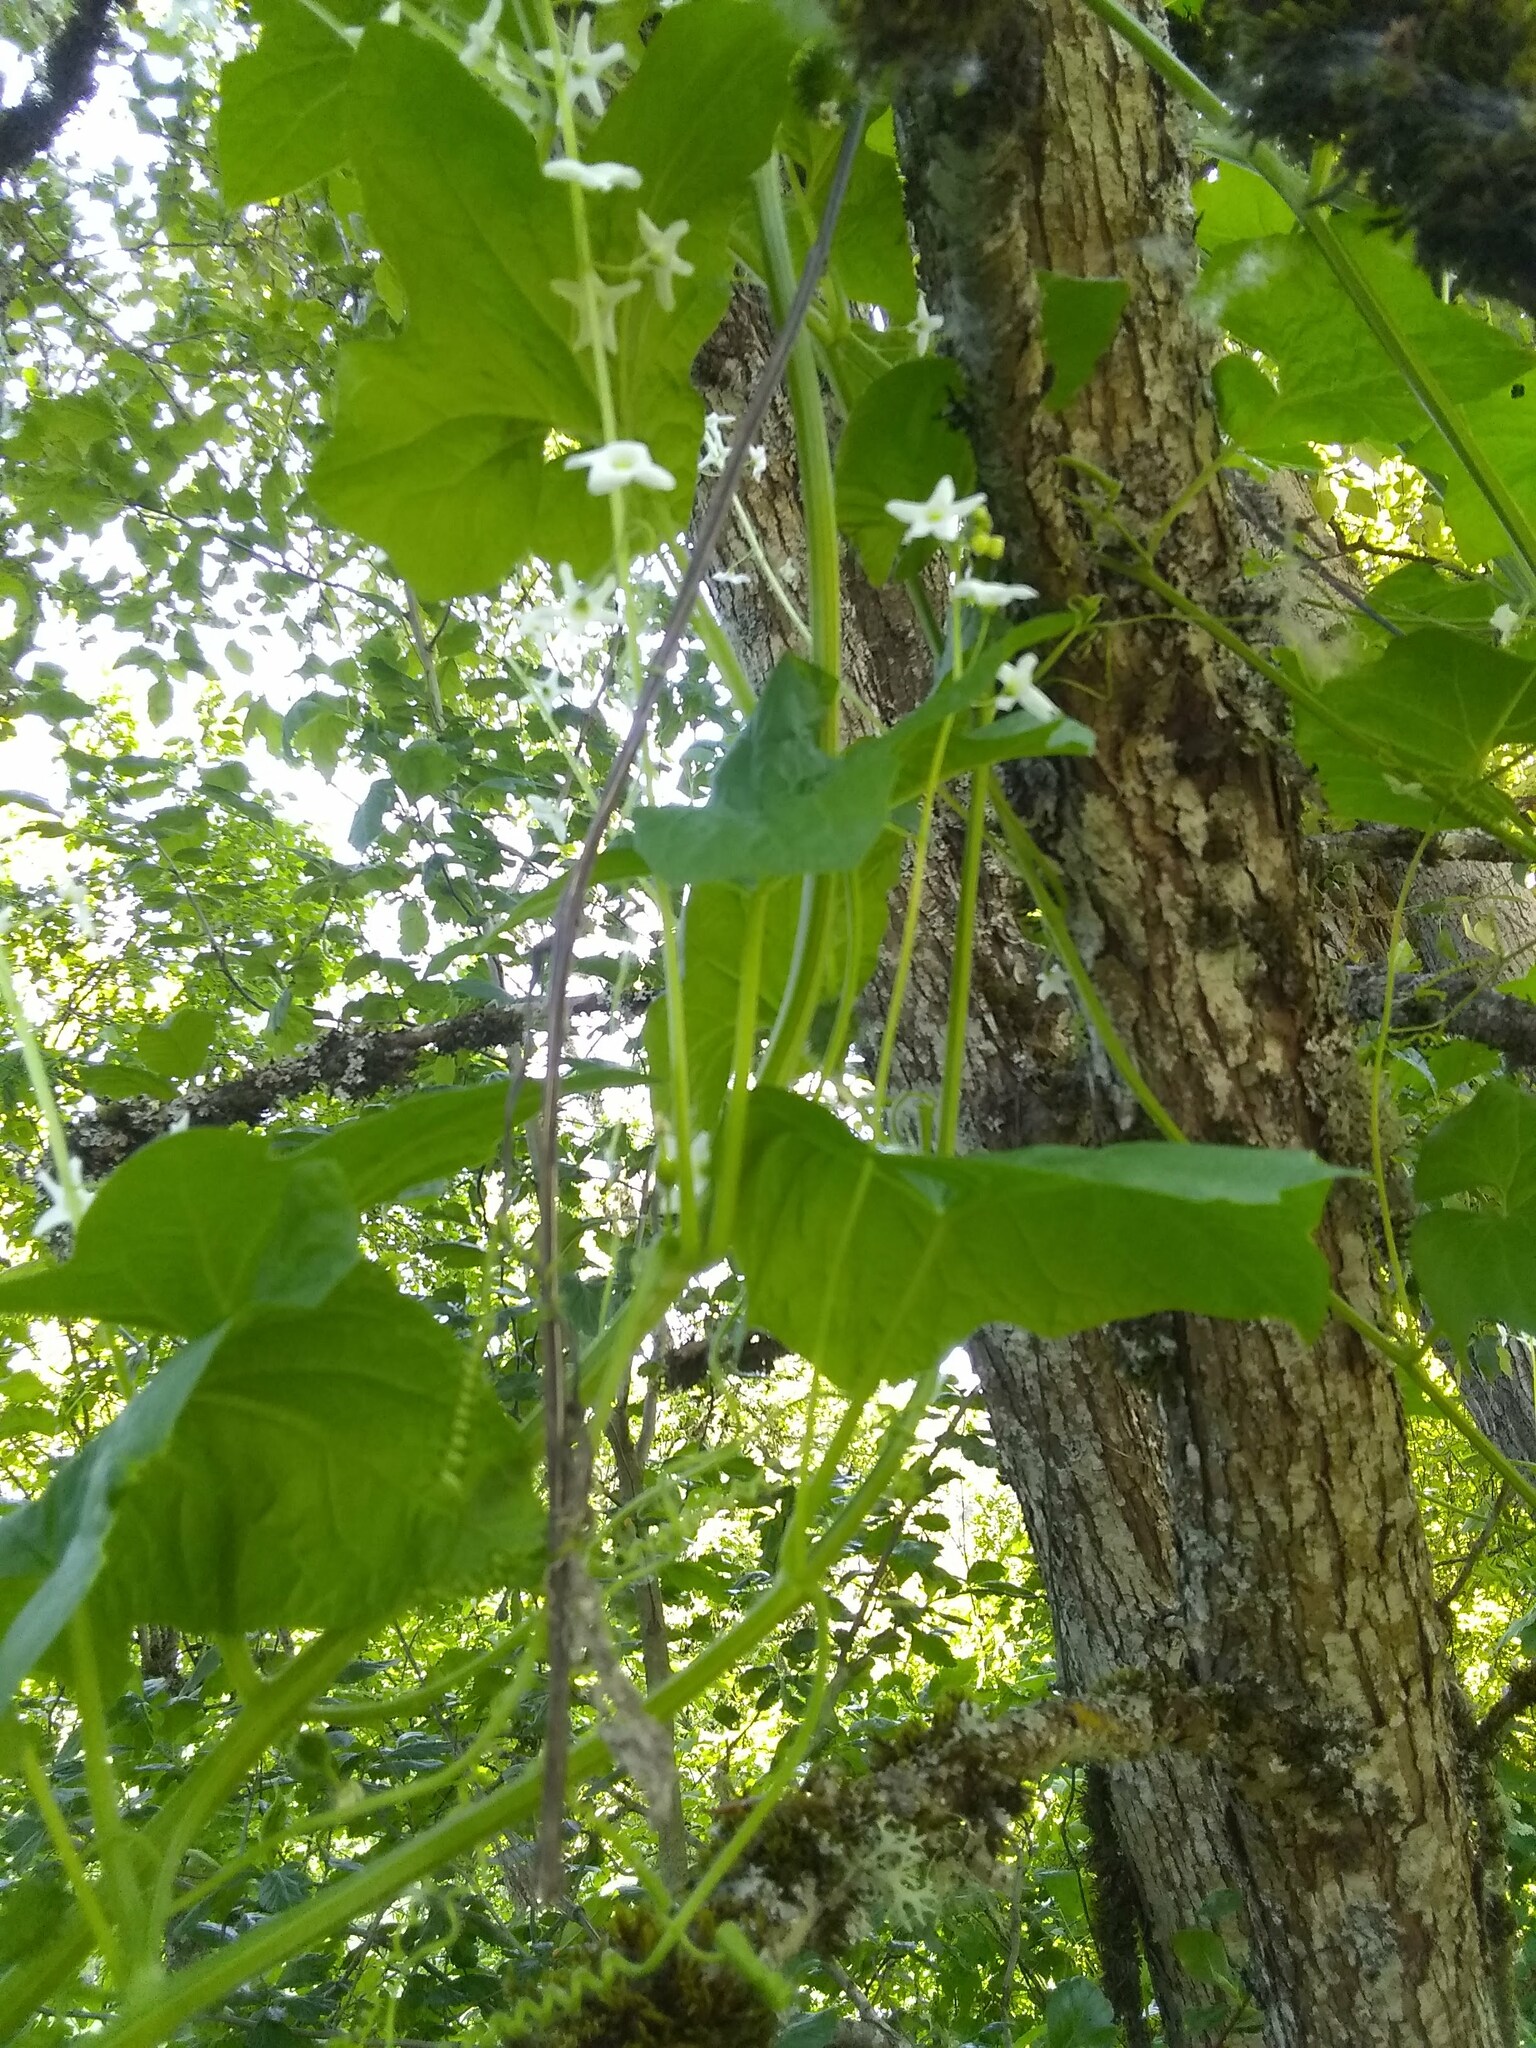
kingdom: Plantae
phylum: Tracheophyta
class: Magnoliopsida
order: Cucurbitales
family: Cucurbitaceae
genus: Marah
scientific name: Marah oregana
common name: Coastal manroot
